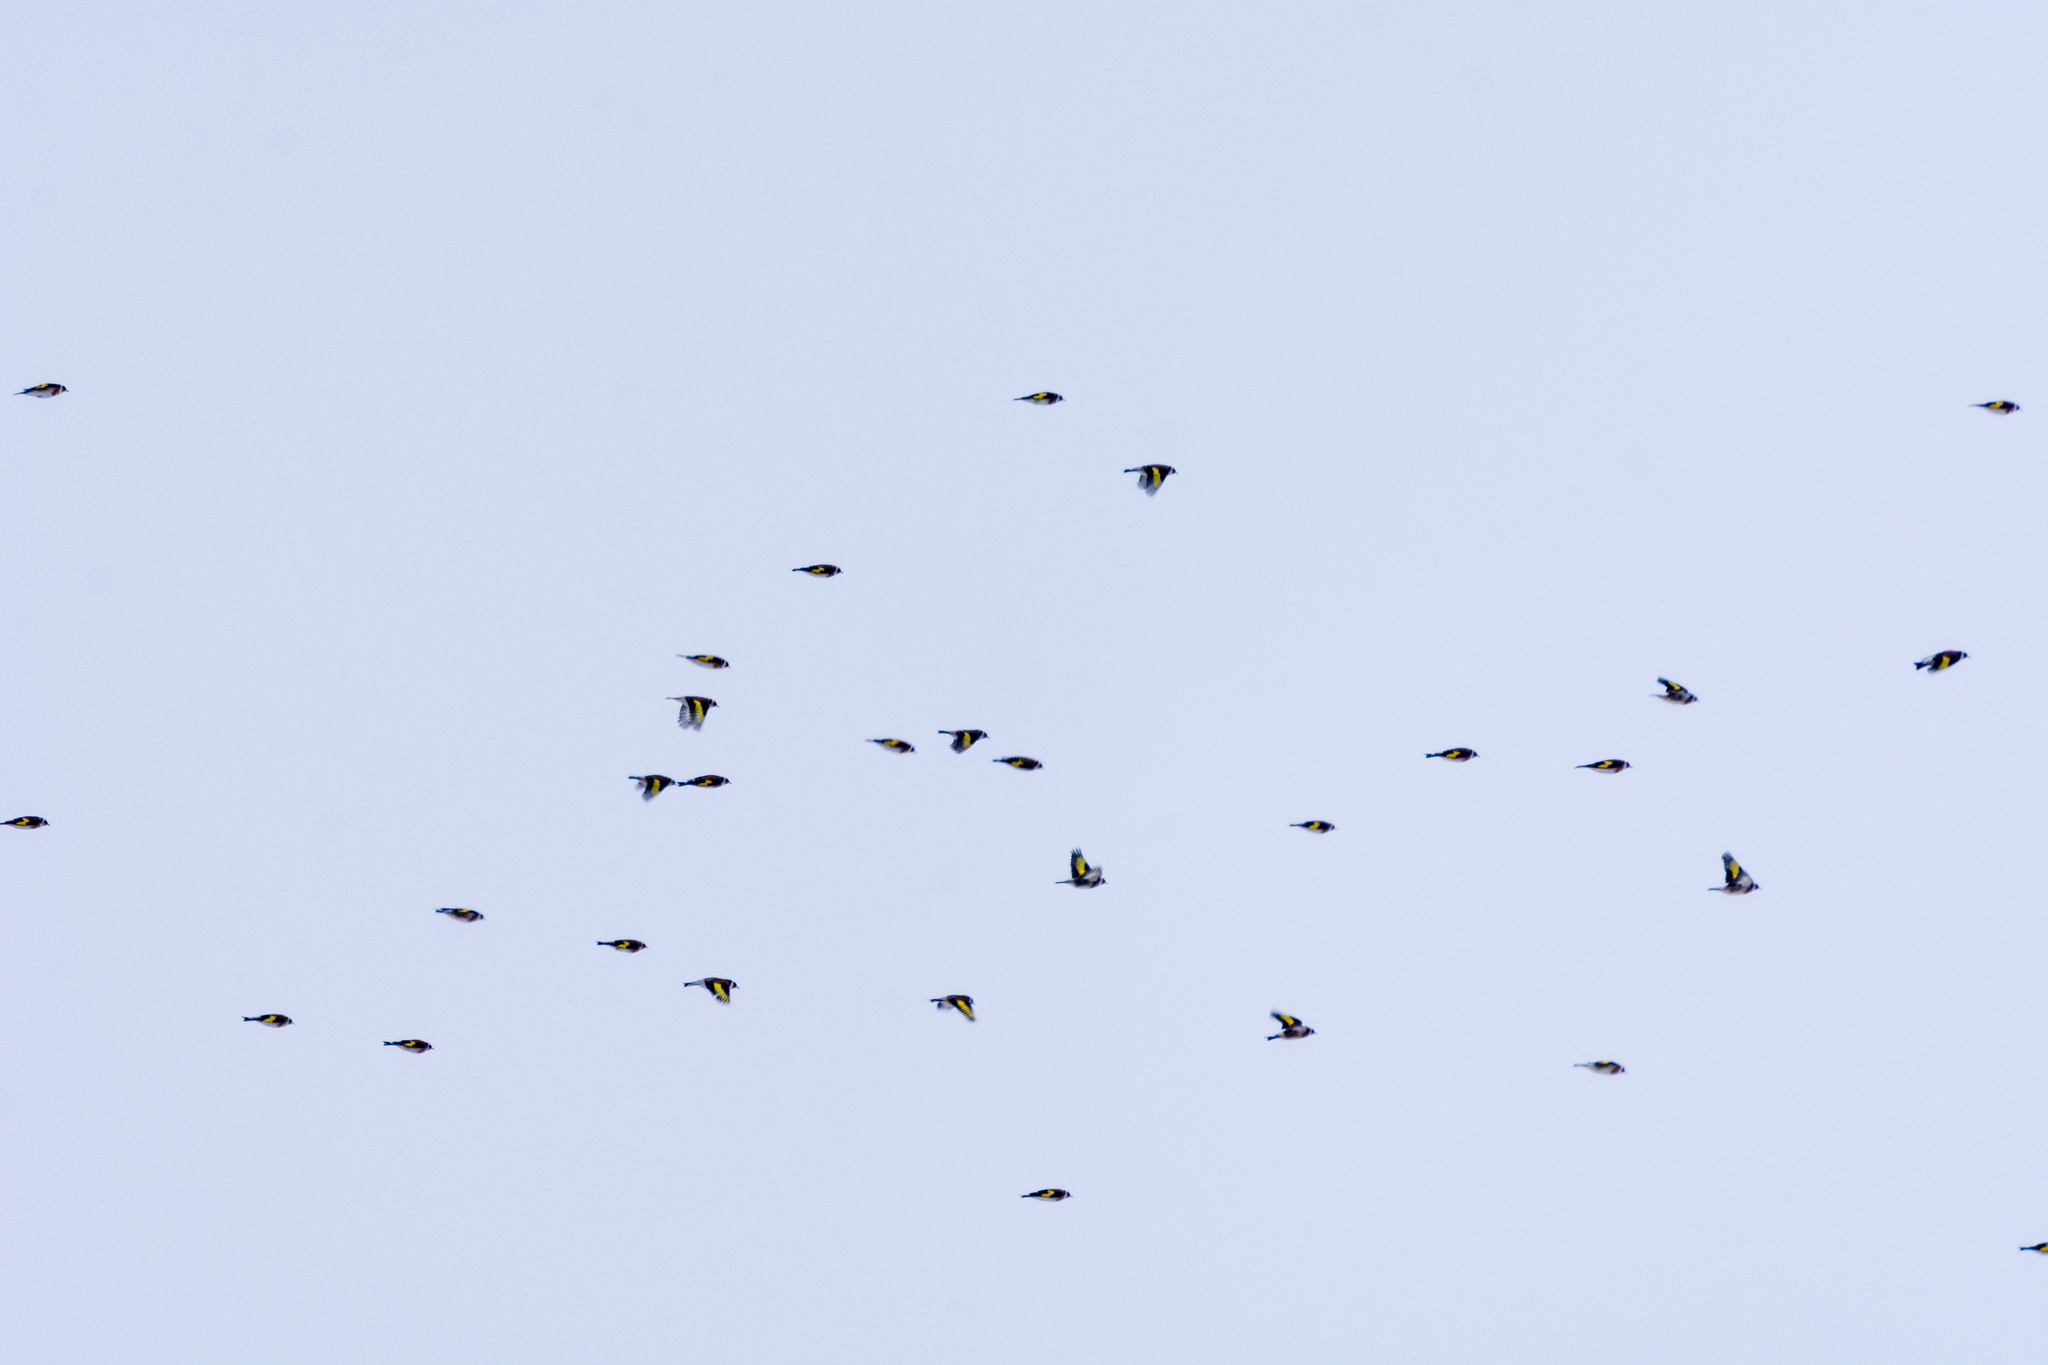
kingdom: Animalia
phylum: Chordata
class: Aves
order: Passeriformes
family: Fringillidae
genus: Carduelis
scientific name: Carduelis carduelis
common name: European goldfinch
